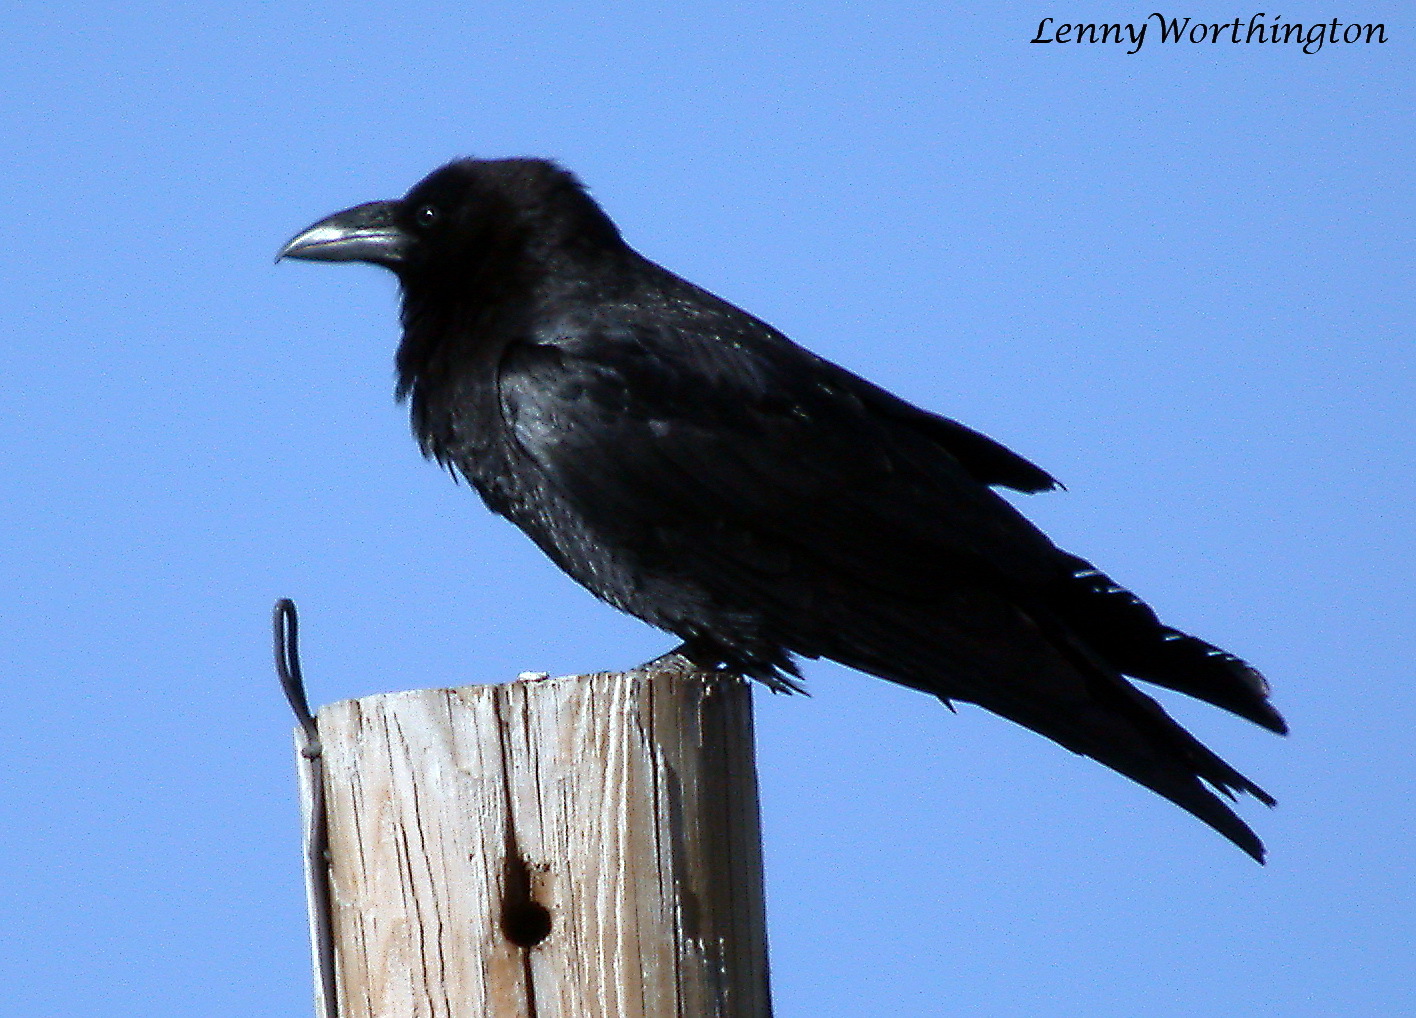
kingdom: Animalia
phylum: Chordata
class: Aves
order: Passeriformes
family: Corvidae
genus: Corvus
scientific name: Corvus corax
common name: Common raven
